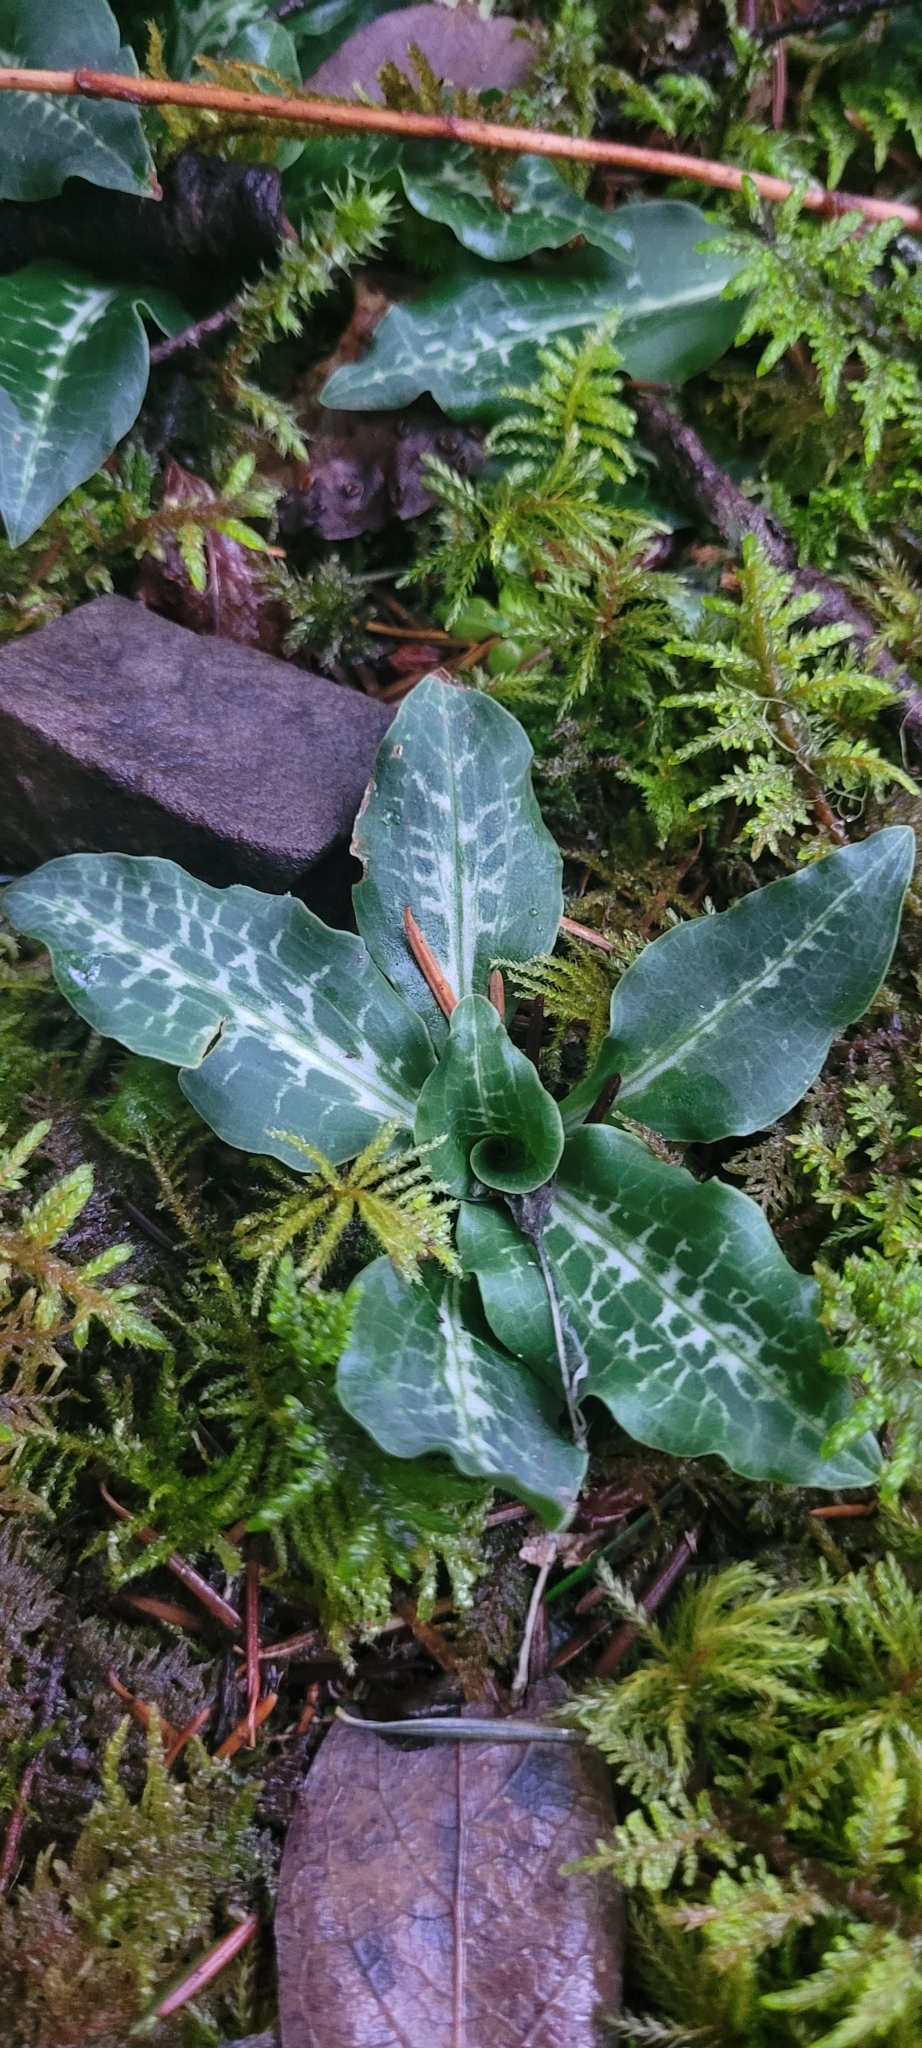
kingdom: Plantae
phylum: Tracheophyta
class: Liliopsida
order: Asparagales
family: Orchidaceae
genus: Goodyera
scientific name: Goodyera oblongifolia
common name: Giant rattlesnake-plantain
